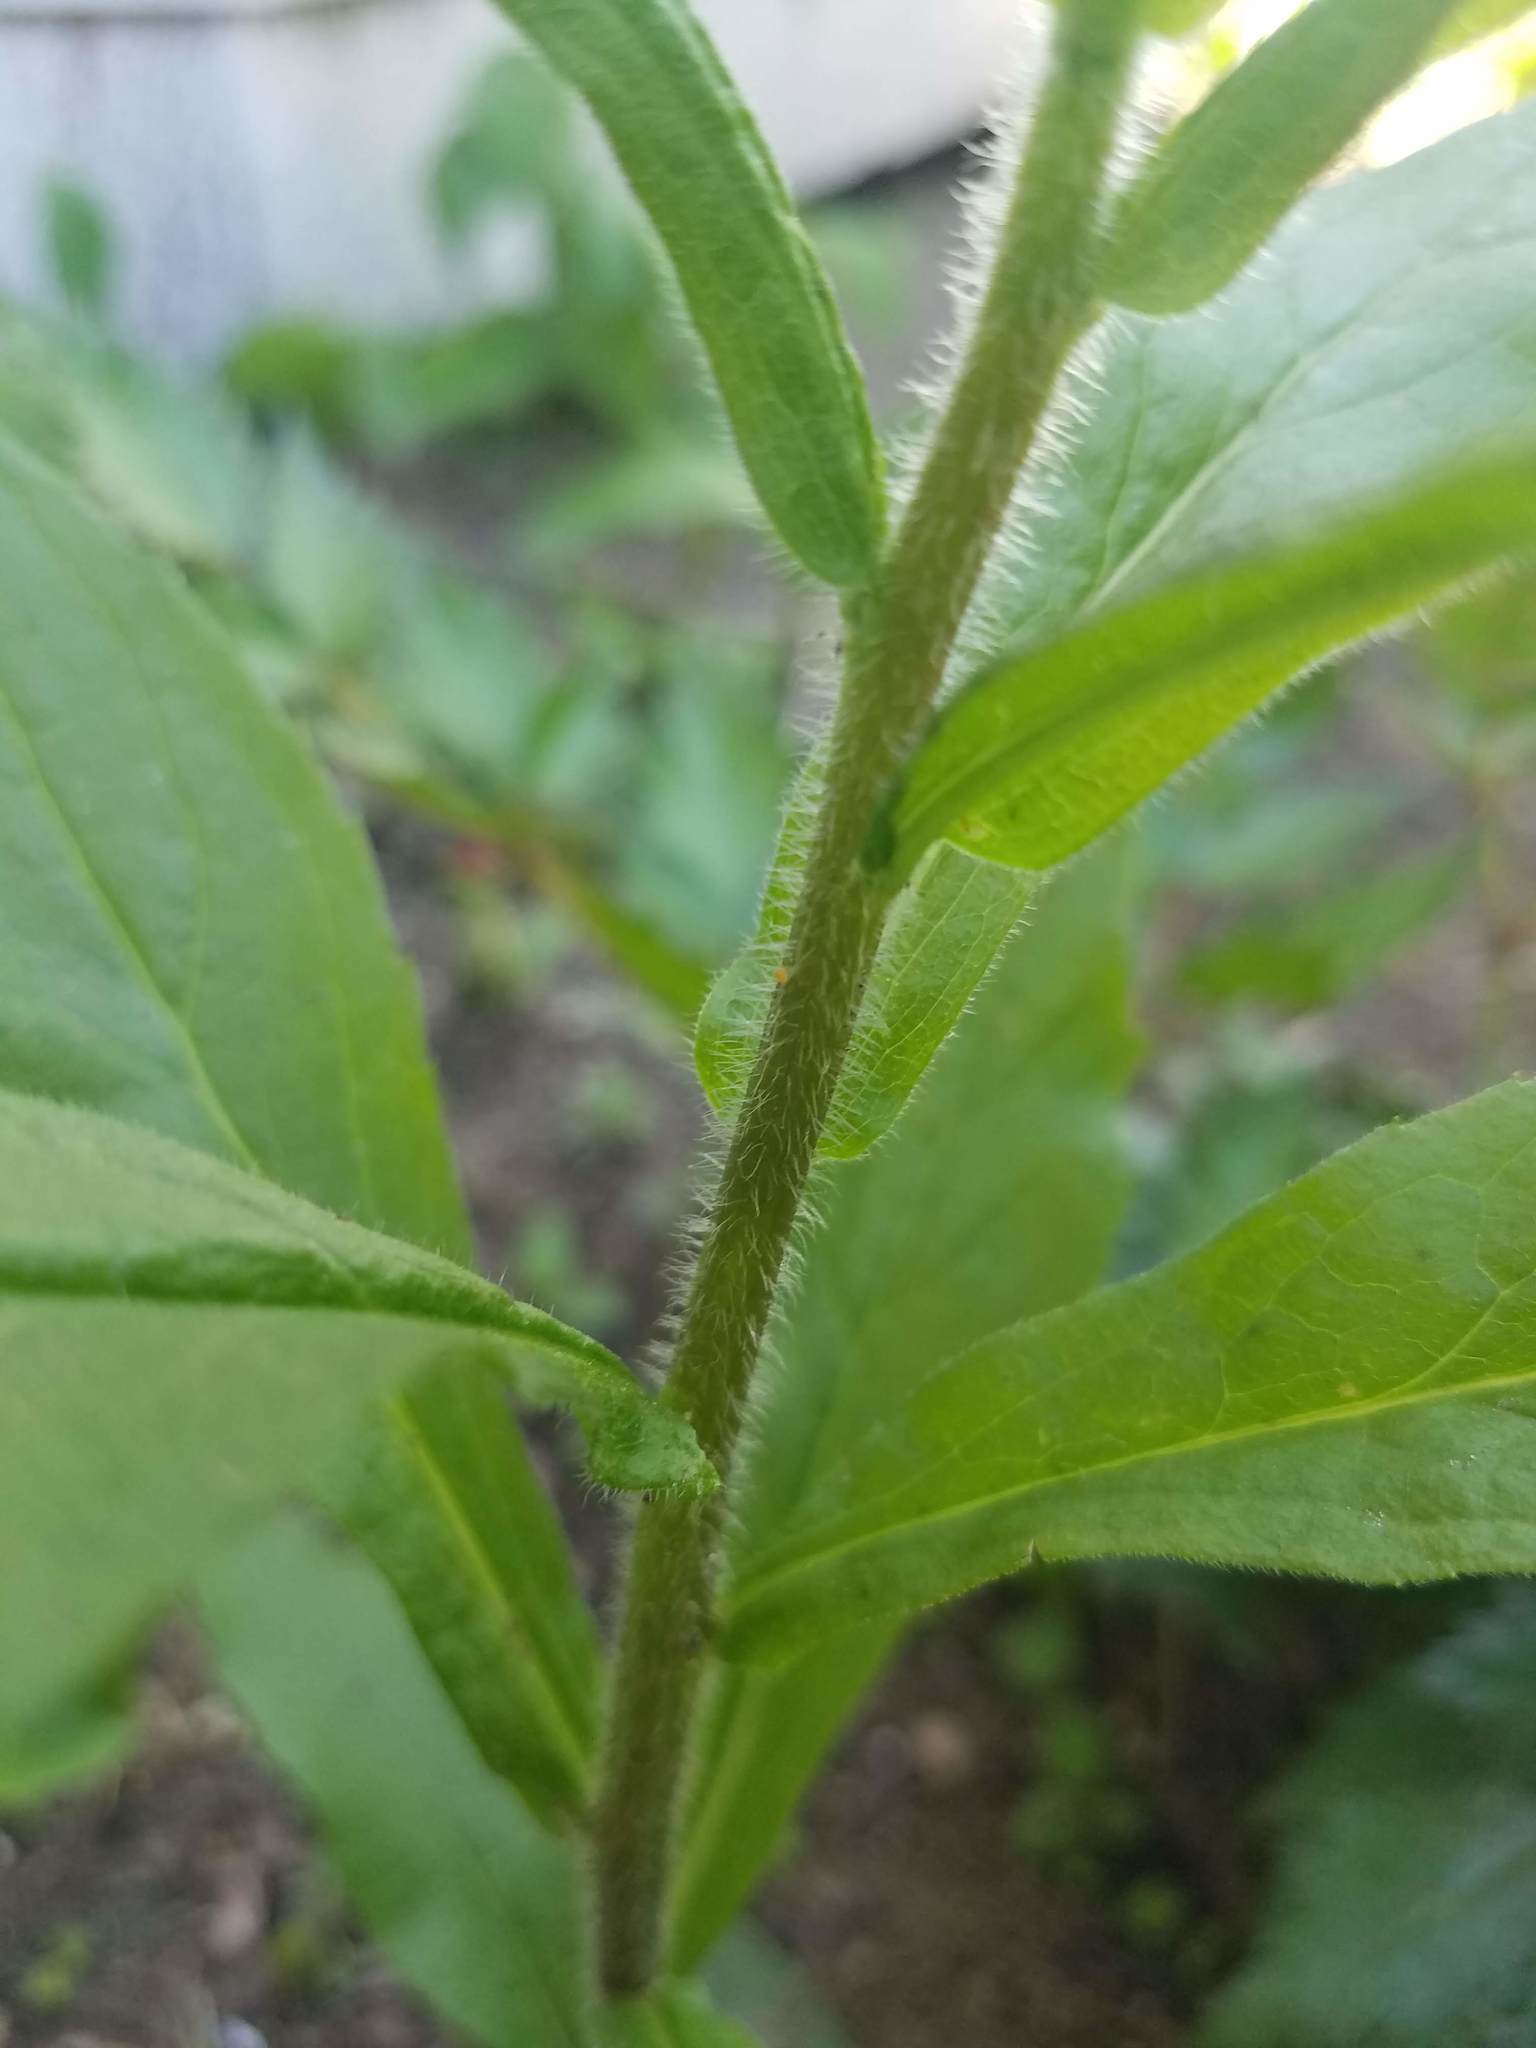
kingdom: Plantae
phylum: Tracheophyta
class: Magnoliopsida
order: Asterales
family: Asteraceae
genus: Solidago
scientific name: Solidago rugosa
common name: Rough-stemmed goldenrod
